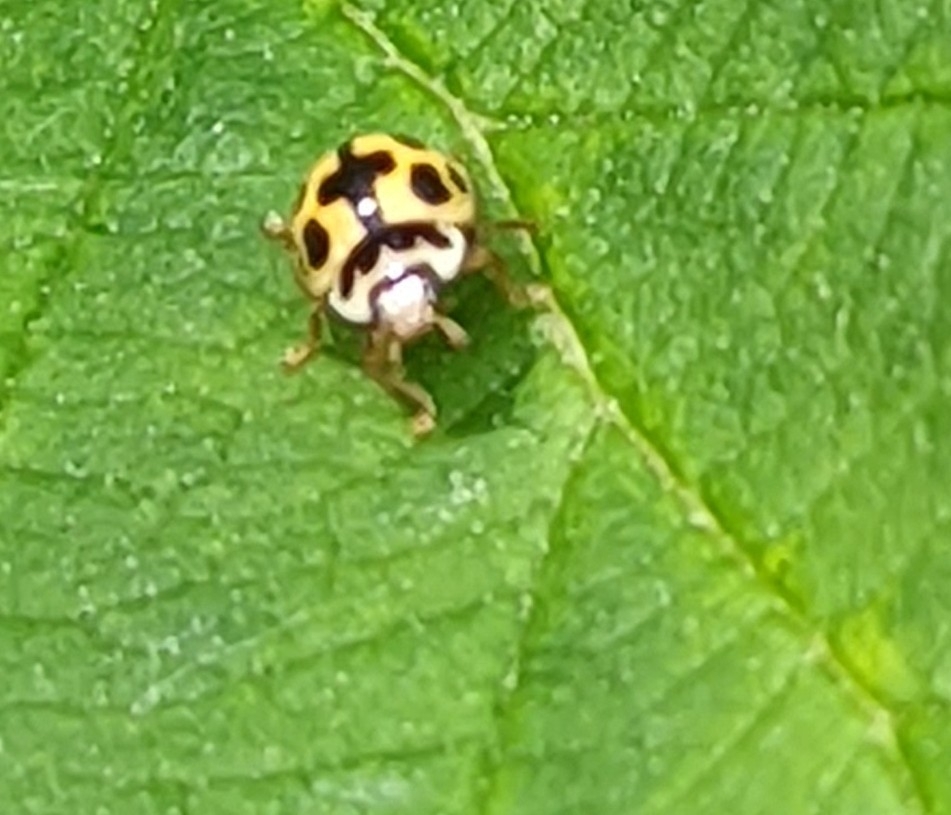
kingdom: Animalia
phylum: Arthropoda
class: Insecta
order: Coleoptera
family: Coccinellidae
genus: Propylaea
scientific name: Propylaea quatuordecimpunctata
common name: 14-spotted ladybird beetle
